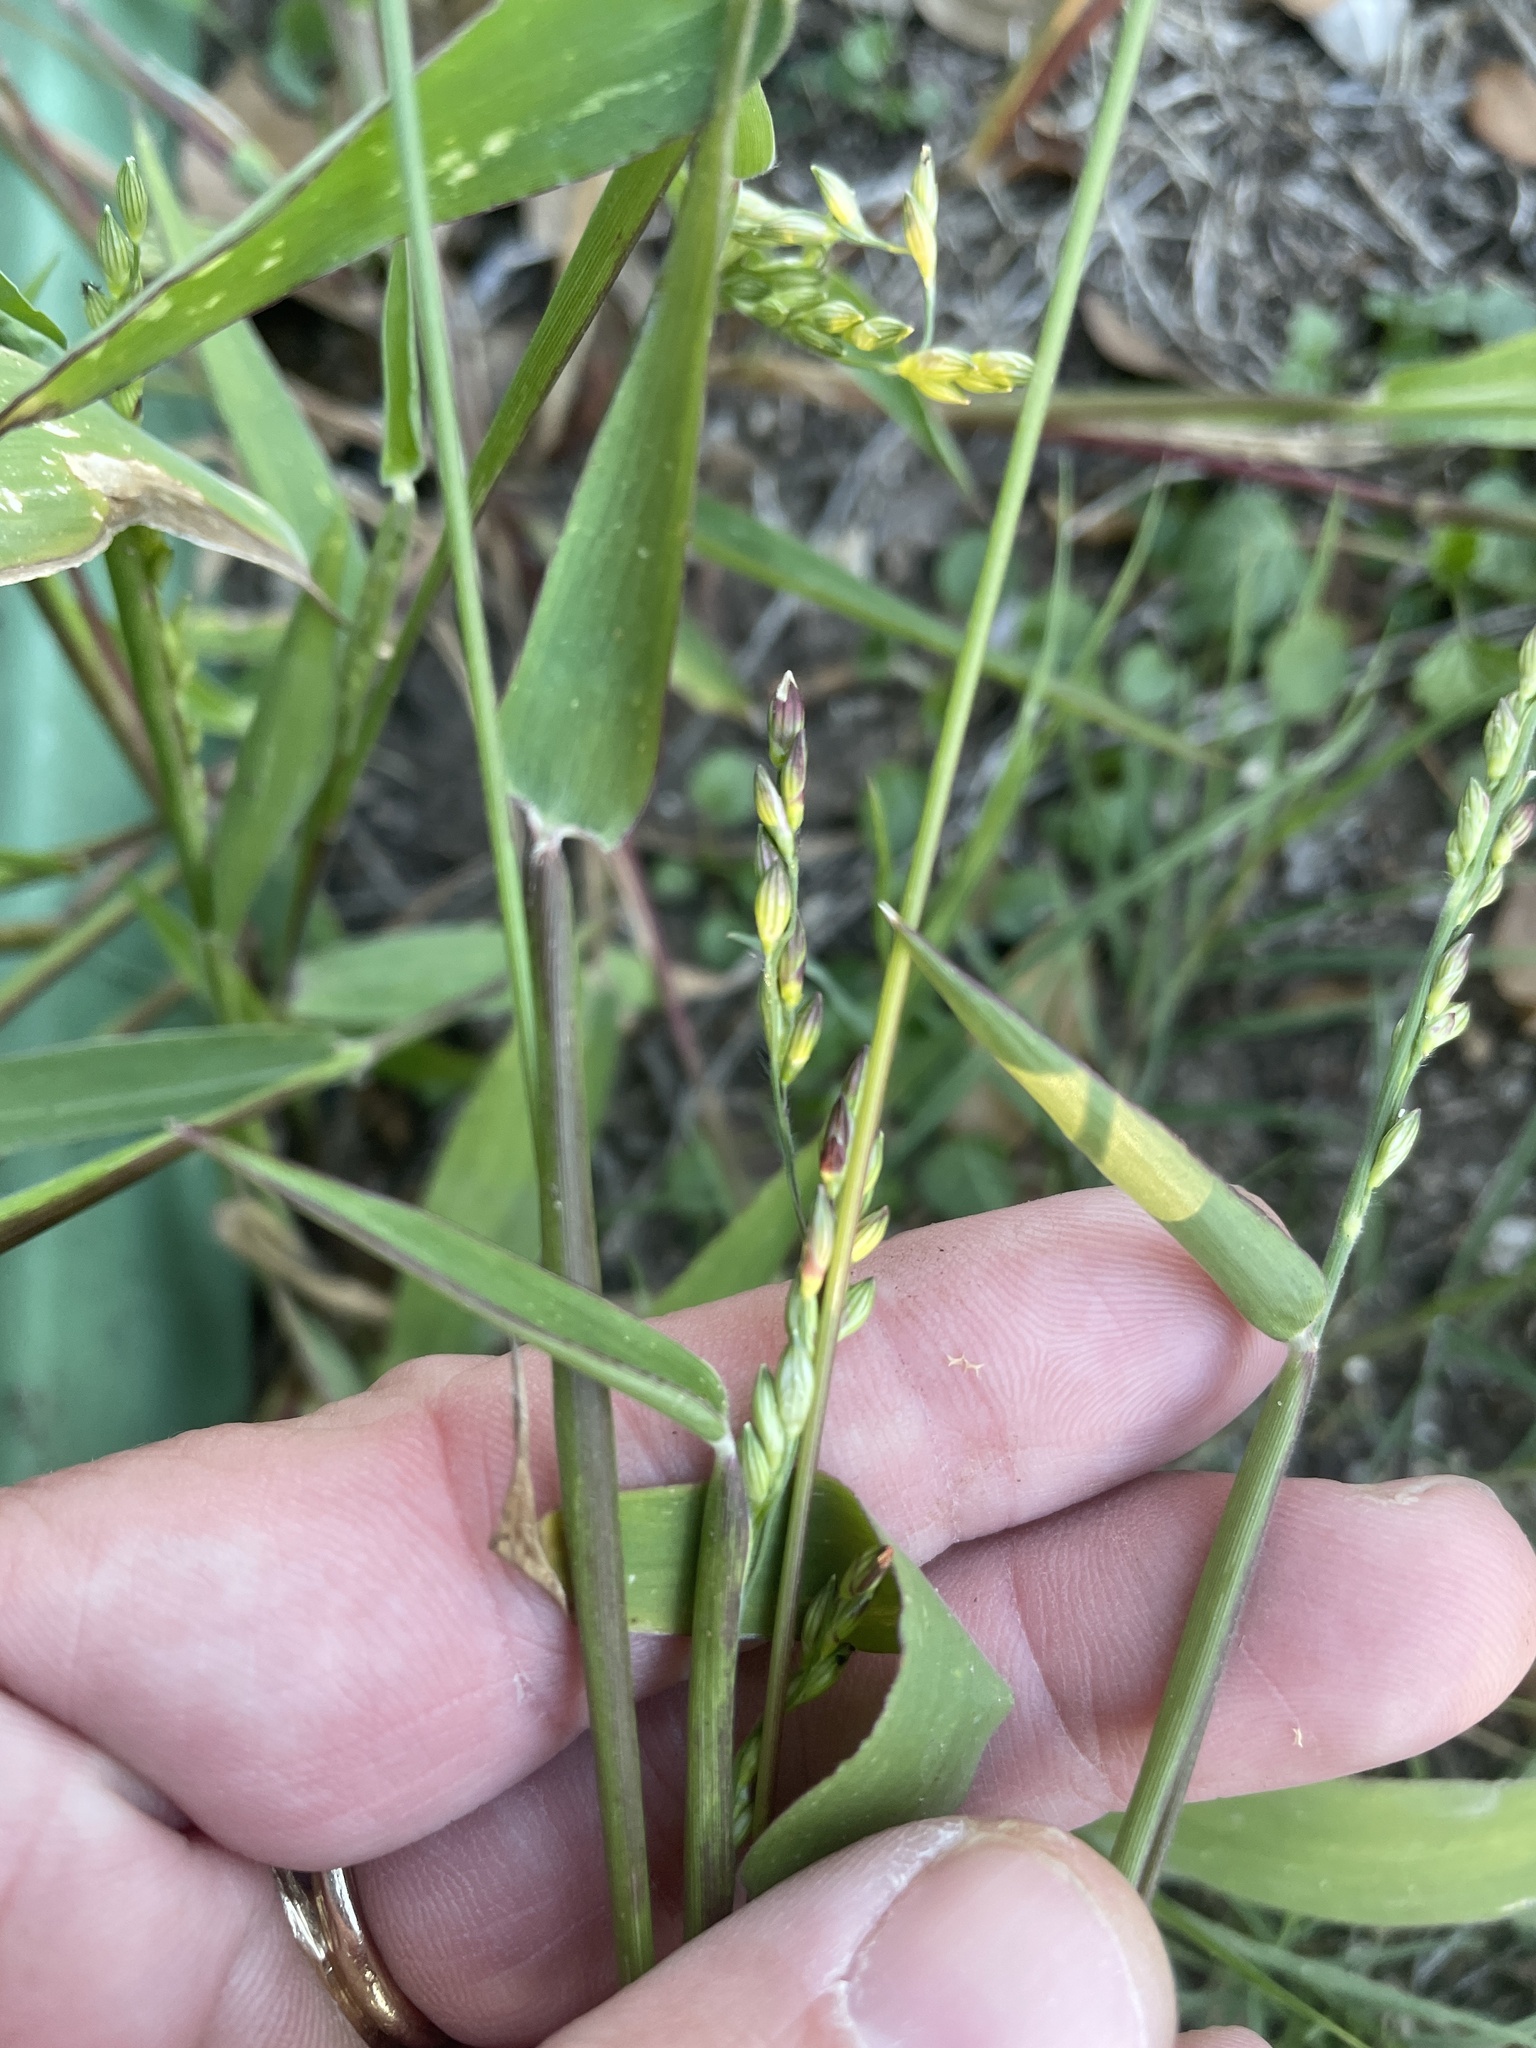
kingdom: Plantae
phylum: Tracheophyta
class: Liliopsida
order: Poales
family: Poaceae
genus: Urochloa
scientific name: Urochloa texana
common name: Texas millet
